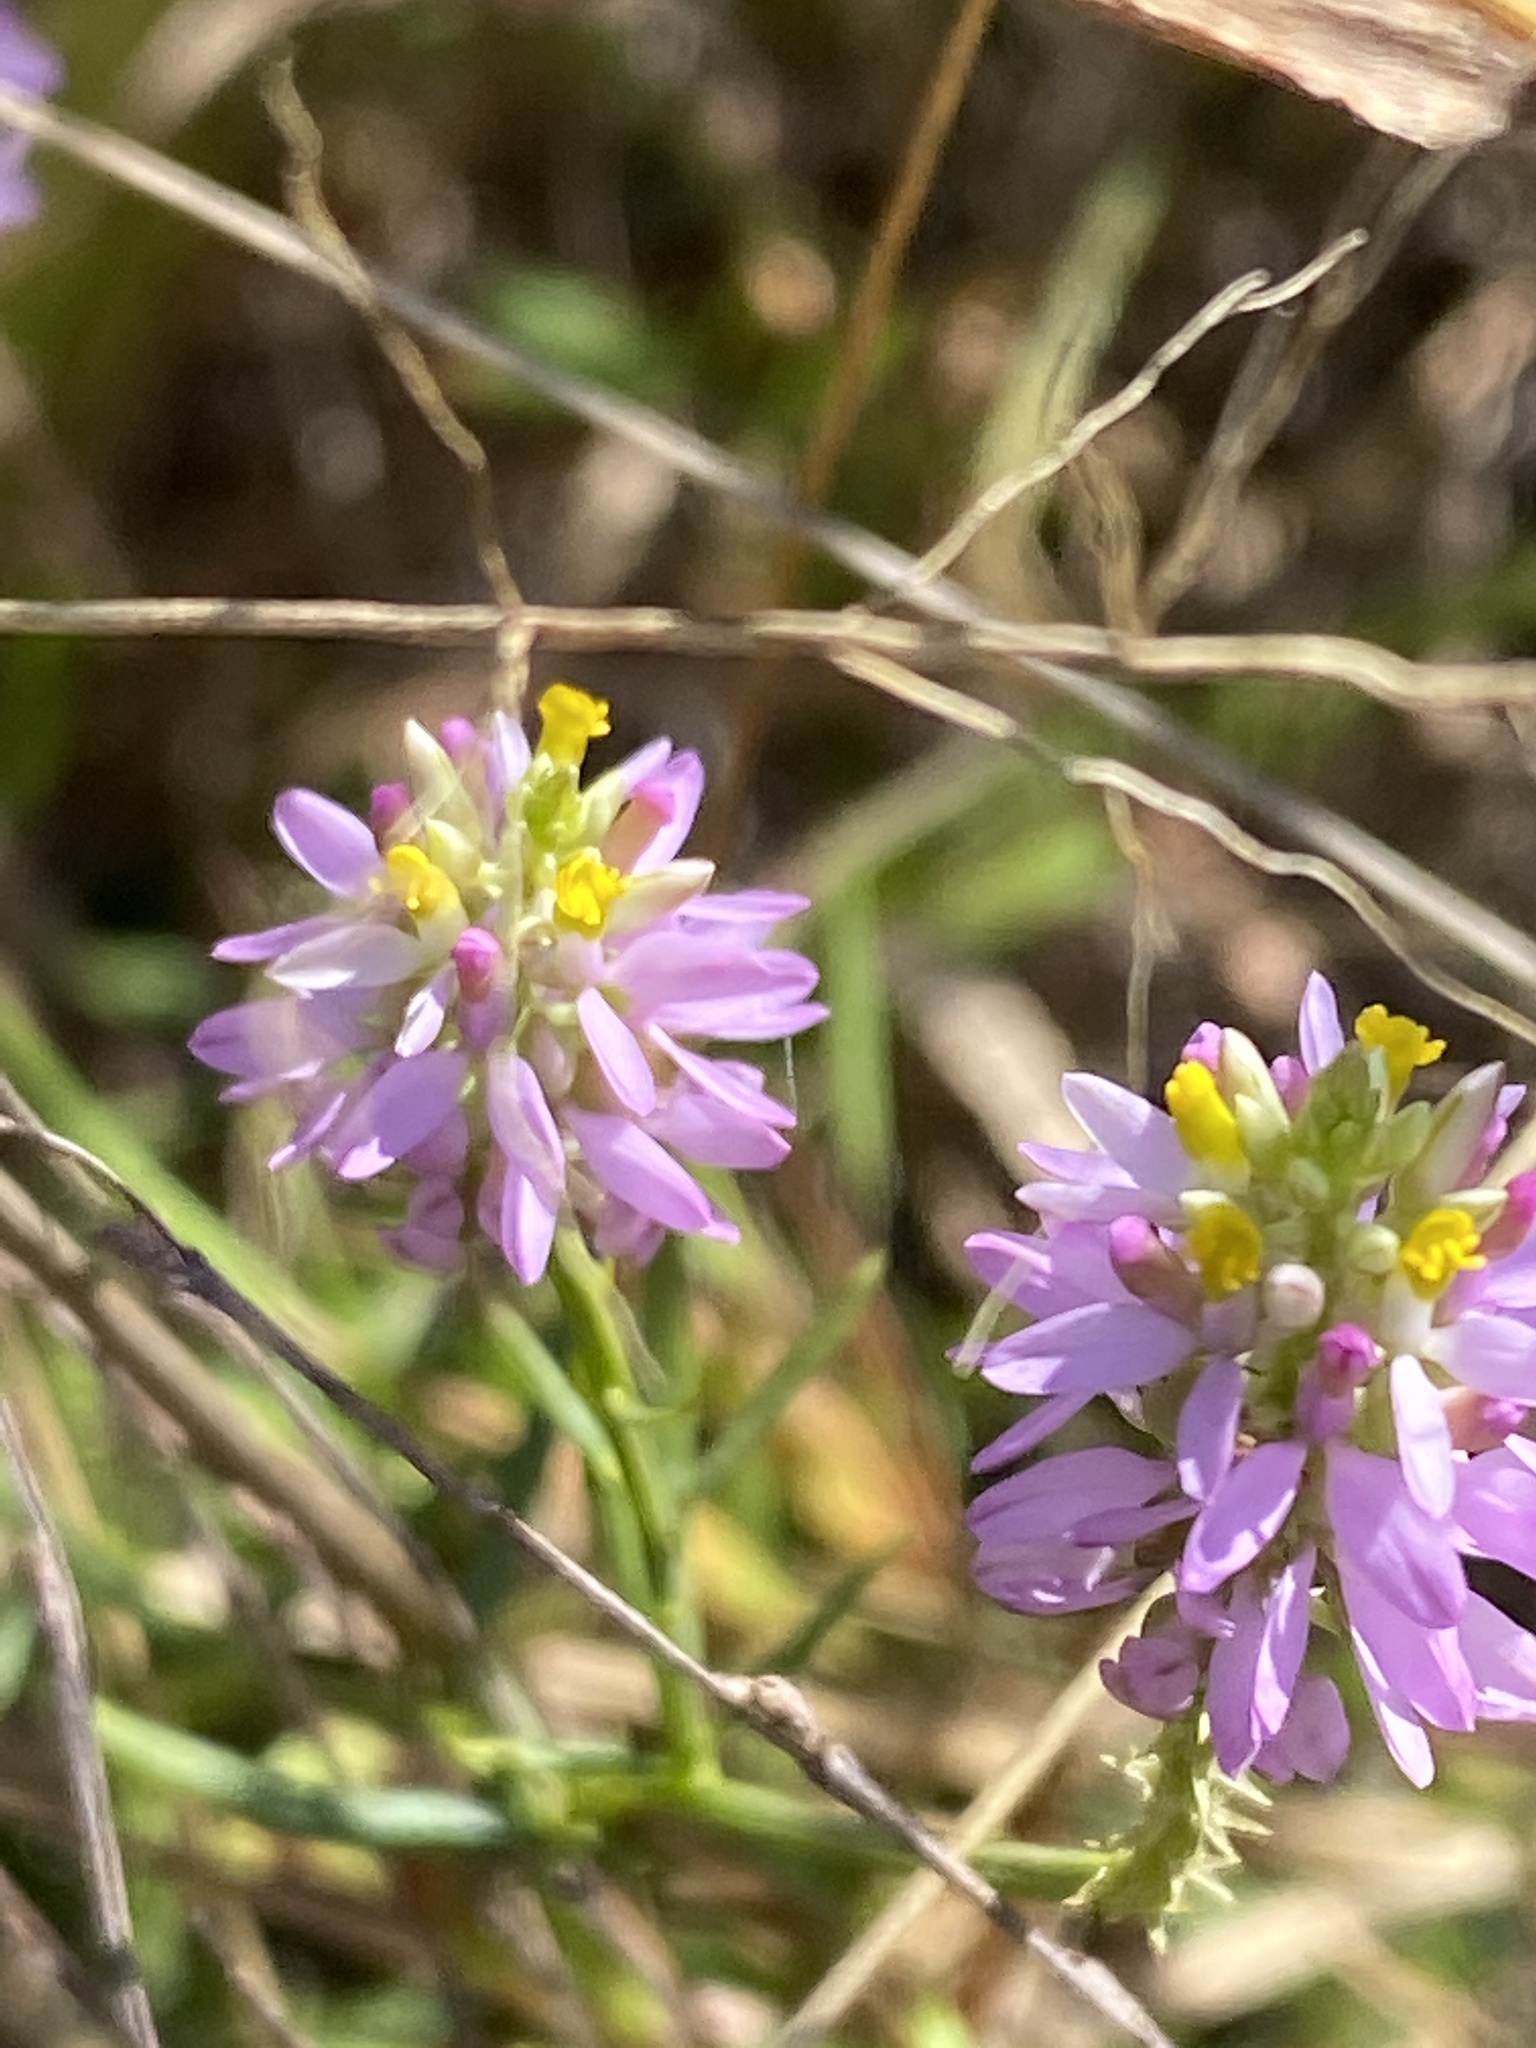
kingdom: Plantae
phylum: Tracheophyta
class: Magnoliopsida
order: Fabales
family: Polygalaceae
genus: Polygala
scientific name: Polygala curtissii
